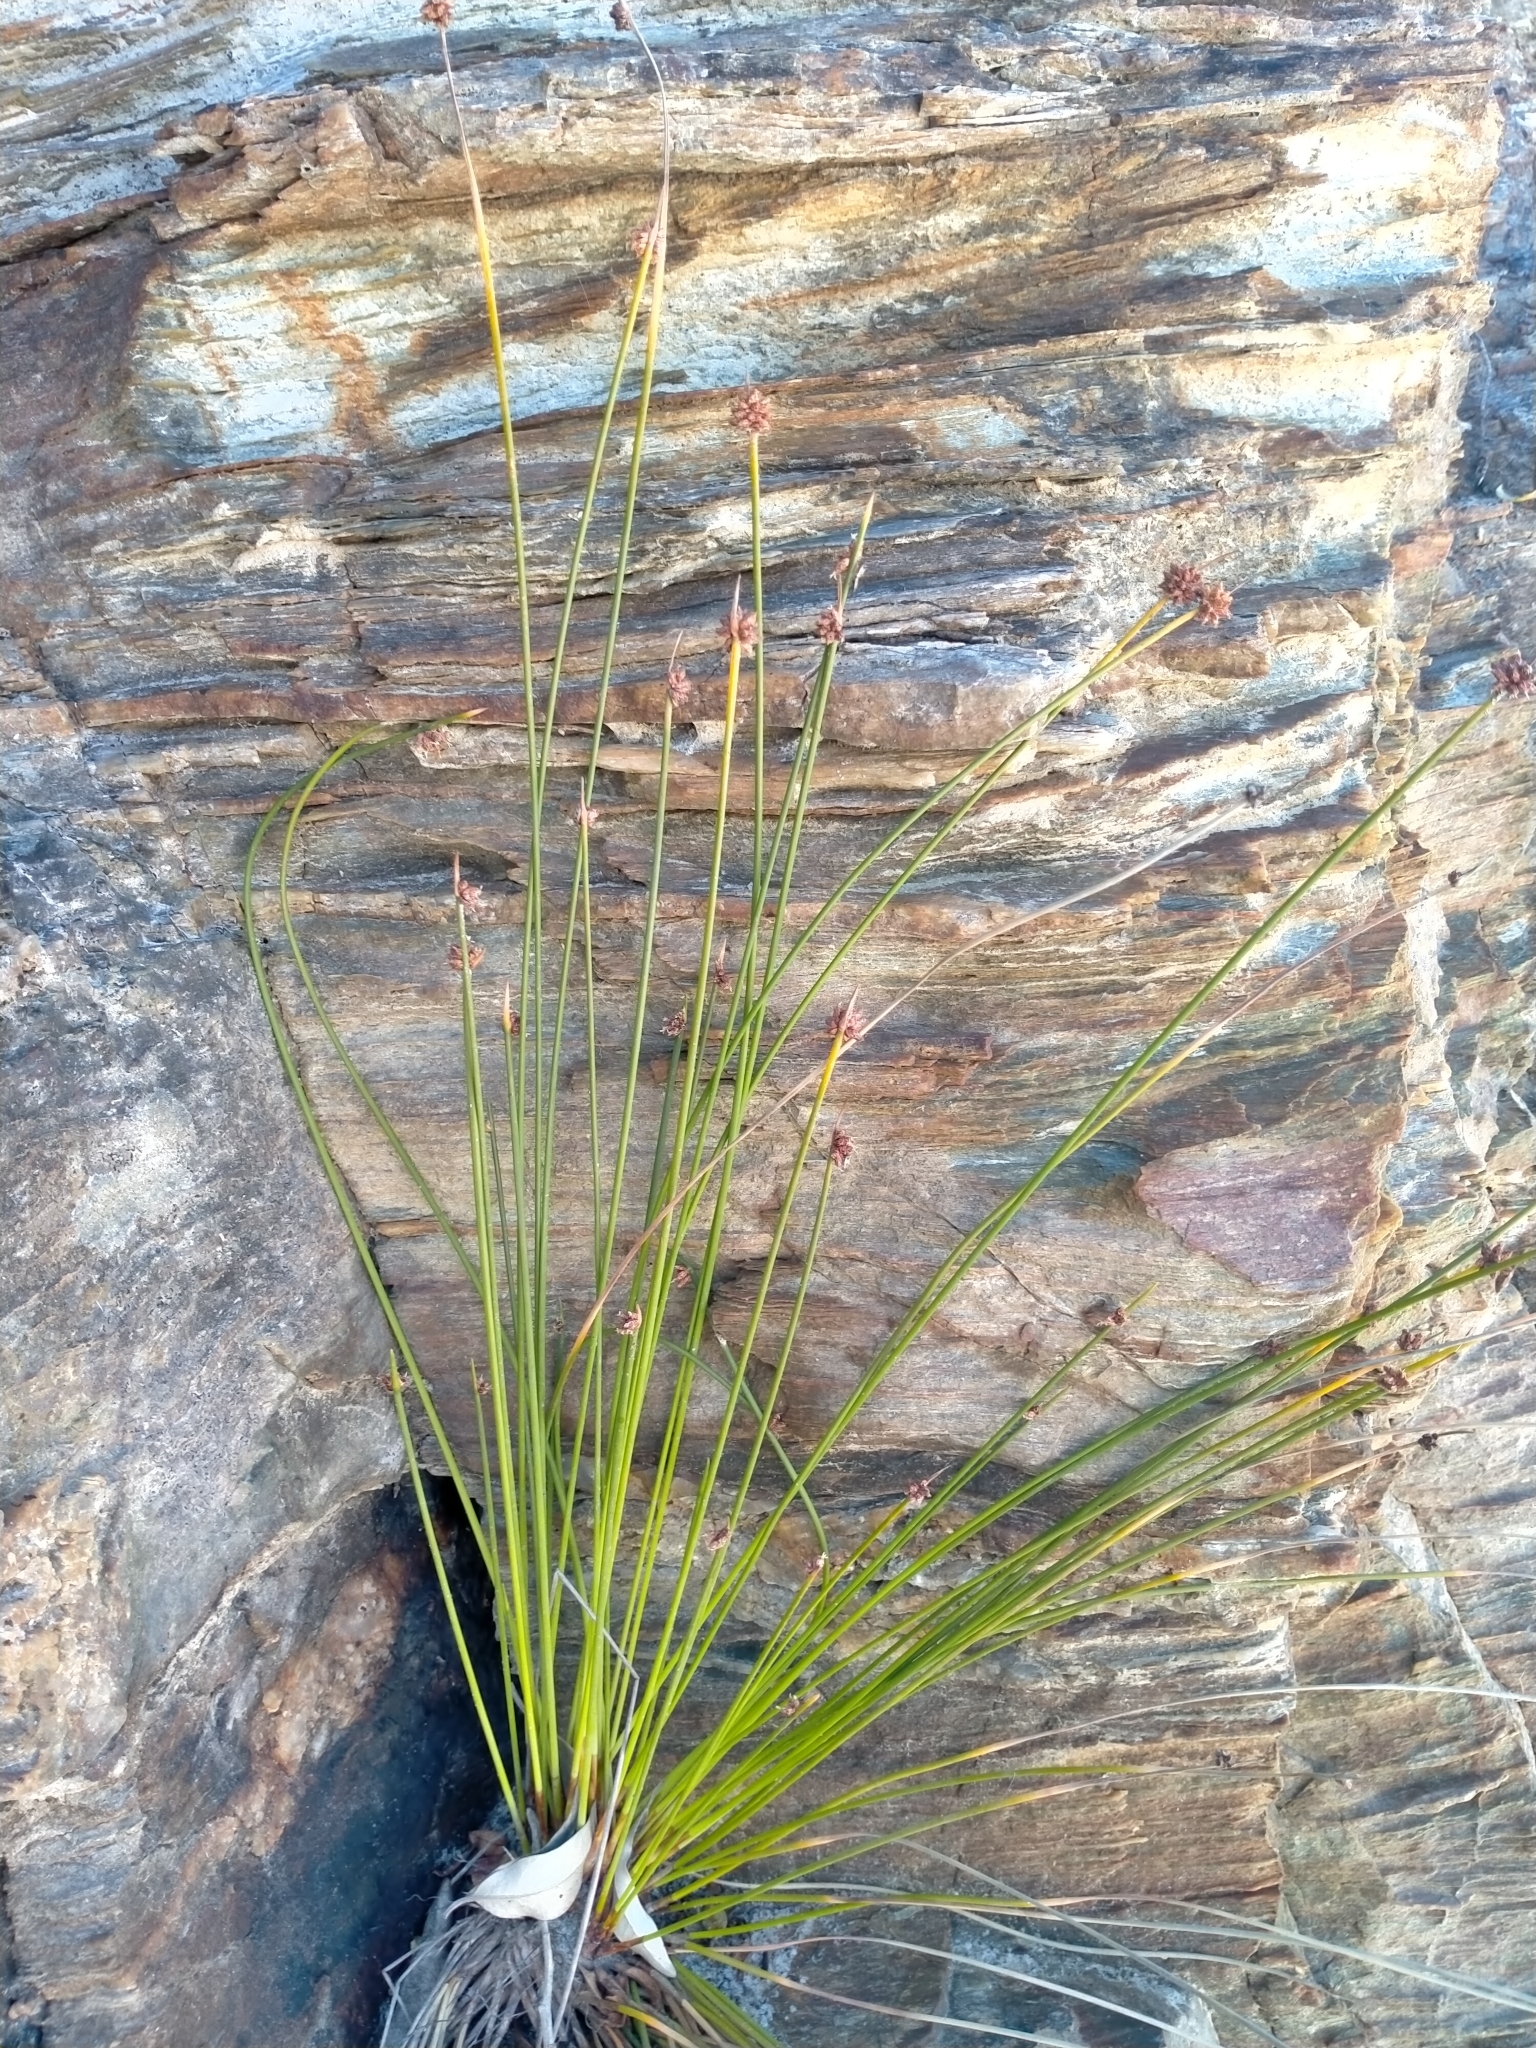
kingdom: Plantae
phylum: Tracheophyta
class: Liliopsida
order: Poales
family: Cyperaceae
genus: Ficinia
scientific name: Ficinia nodosa
